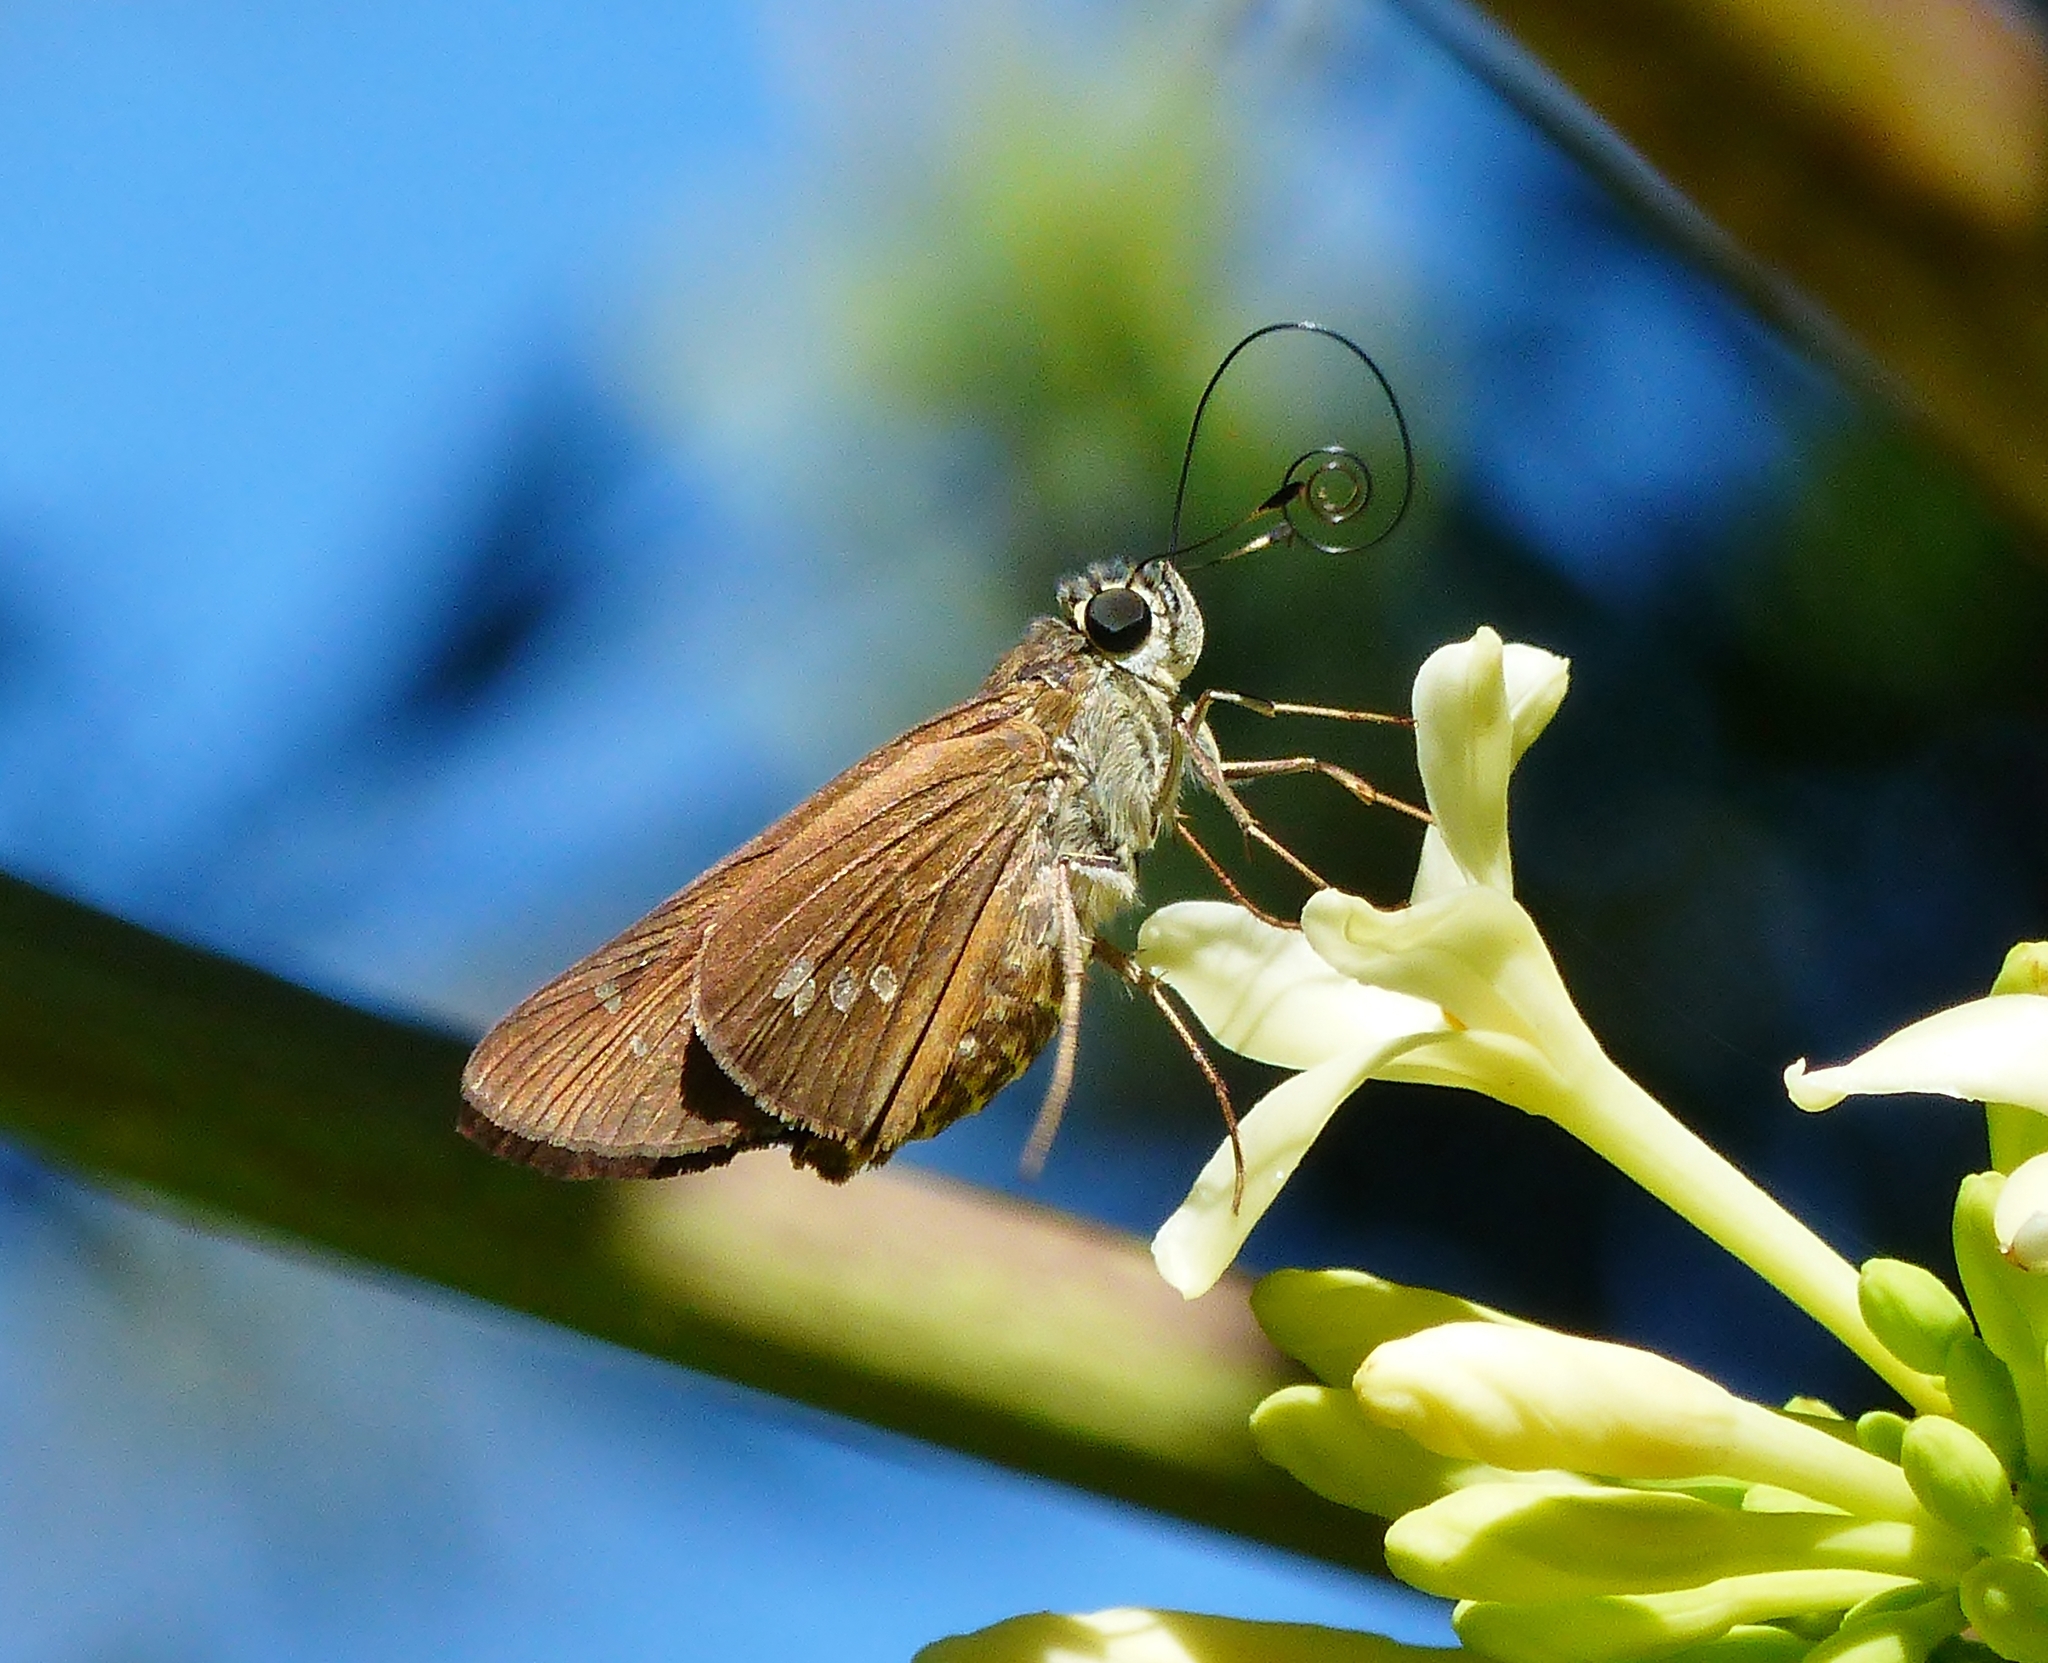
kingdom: Animalia
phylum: Arthropoda
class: Insecta
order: Lepidoptera
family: Hesperiidae
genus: Calpodes
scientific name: Calpodes ethlius
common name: Brazilian skipper
